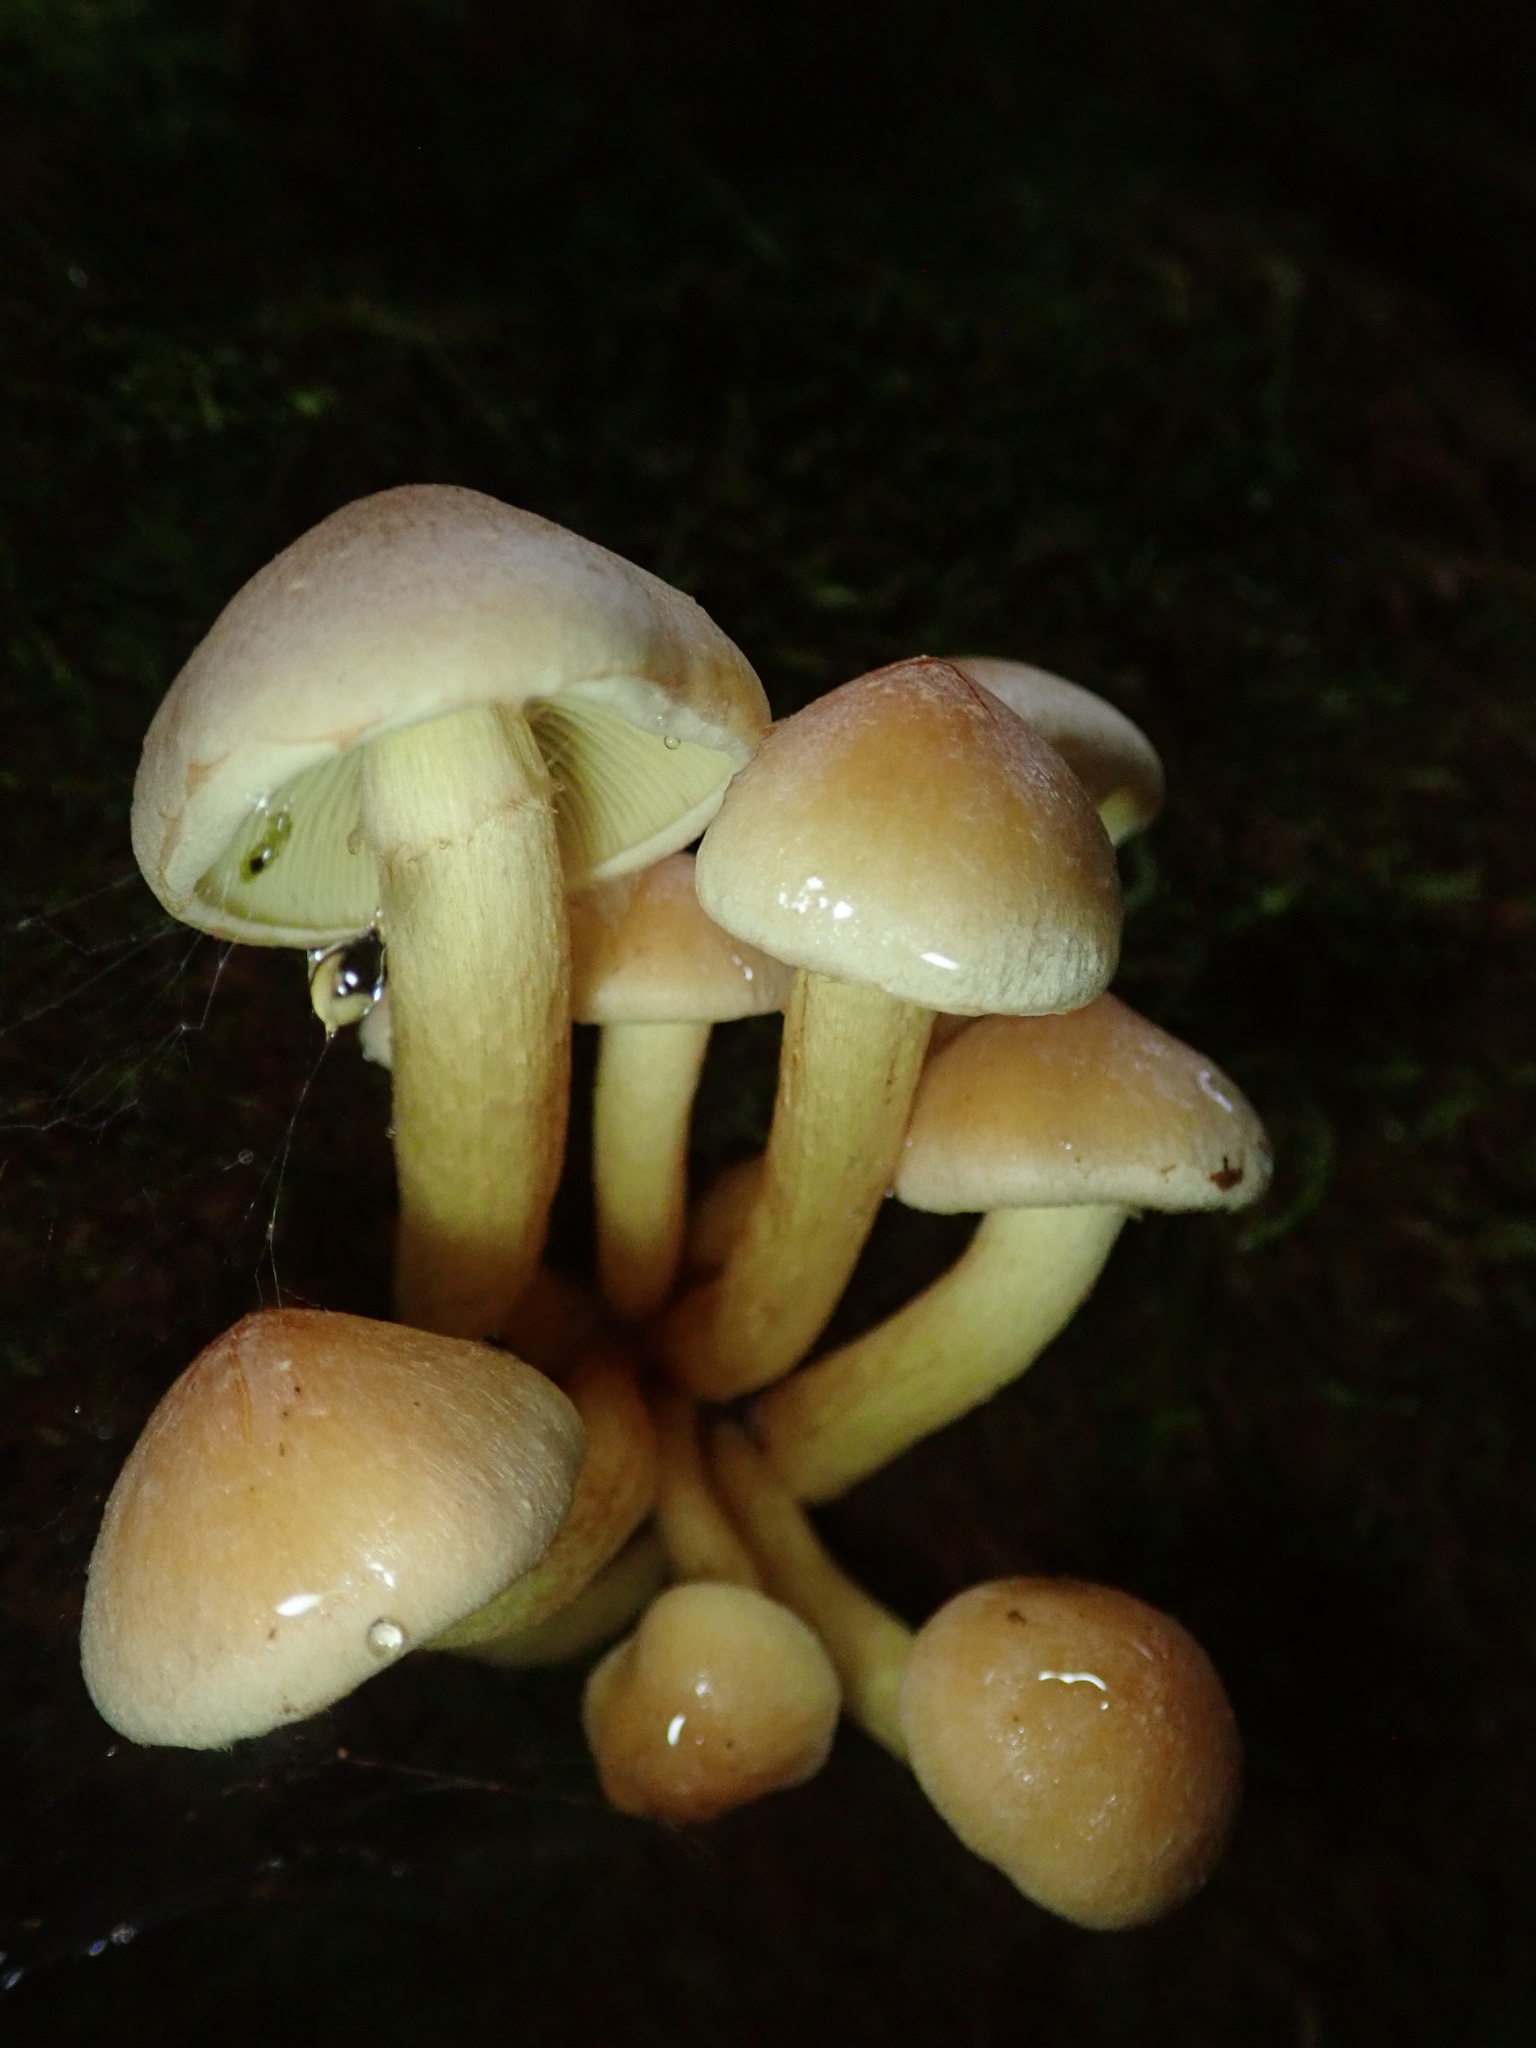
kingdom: Fungi
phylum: Basidiomycota
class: Agaricomycetes
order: Agaricales
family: Strophariaceae
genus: Hypholoma
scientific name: Hypholoma fasciculare
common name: Sulphur tuft
